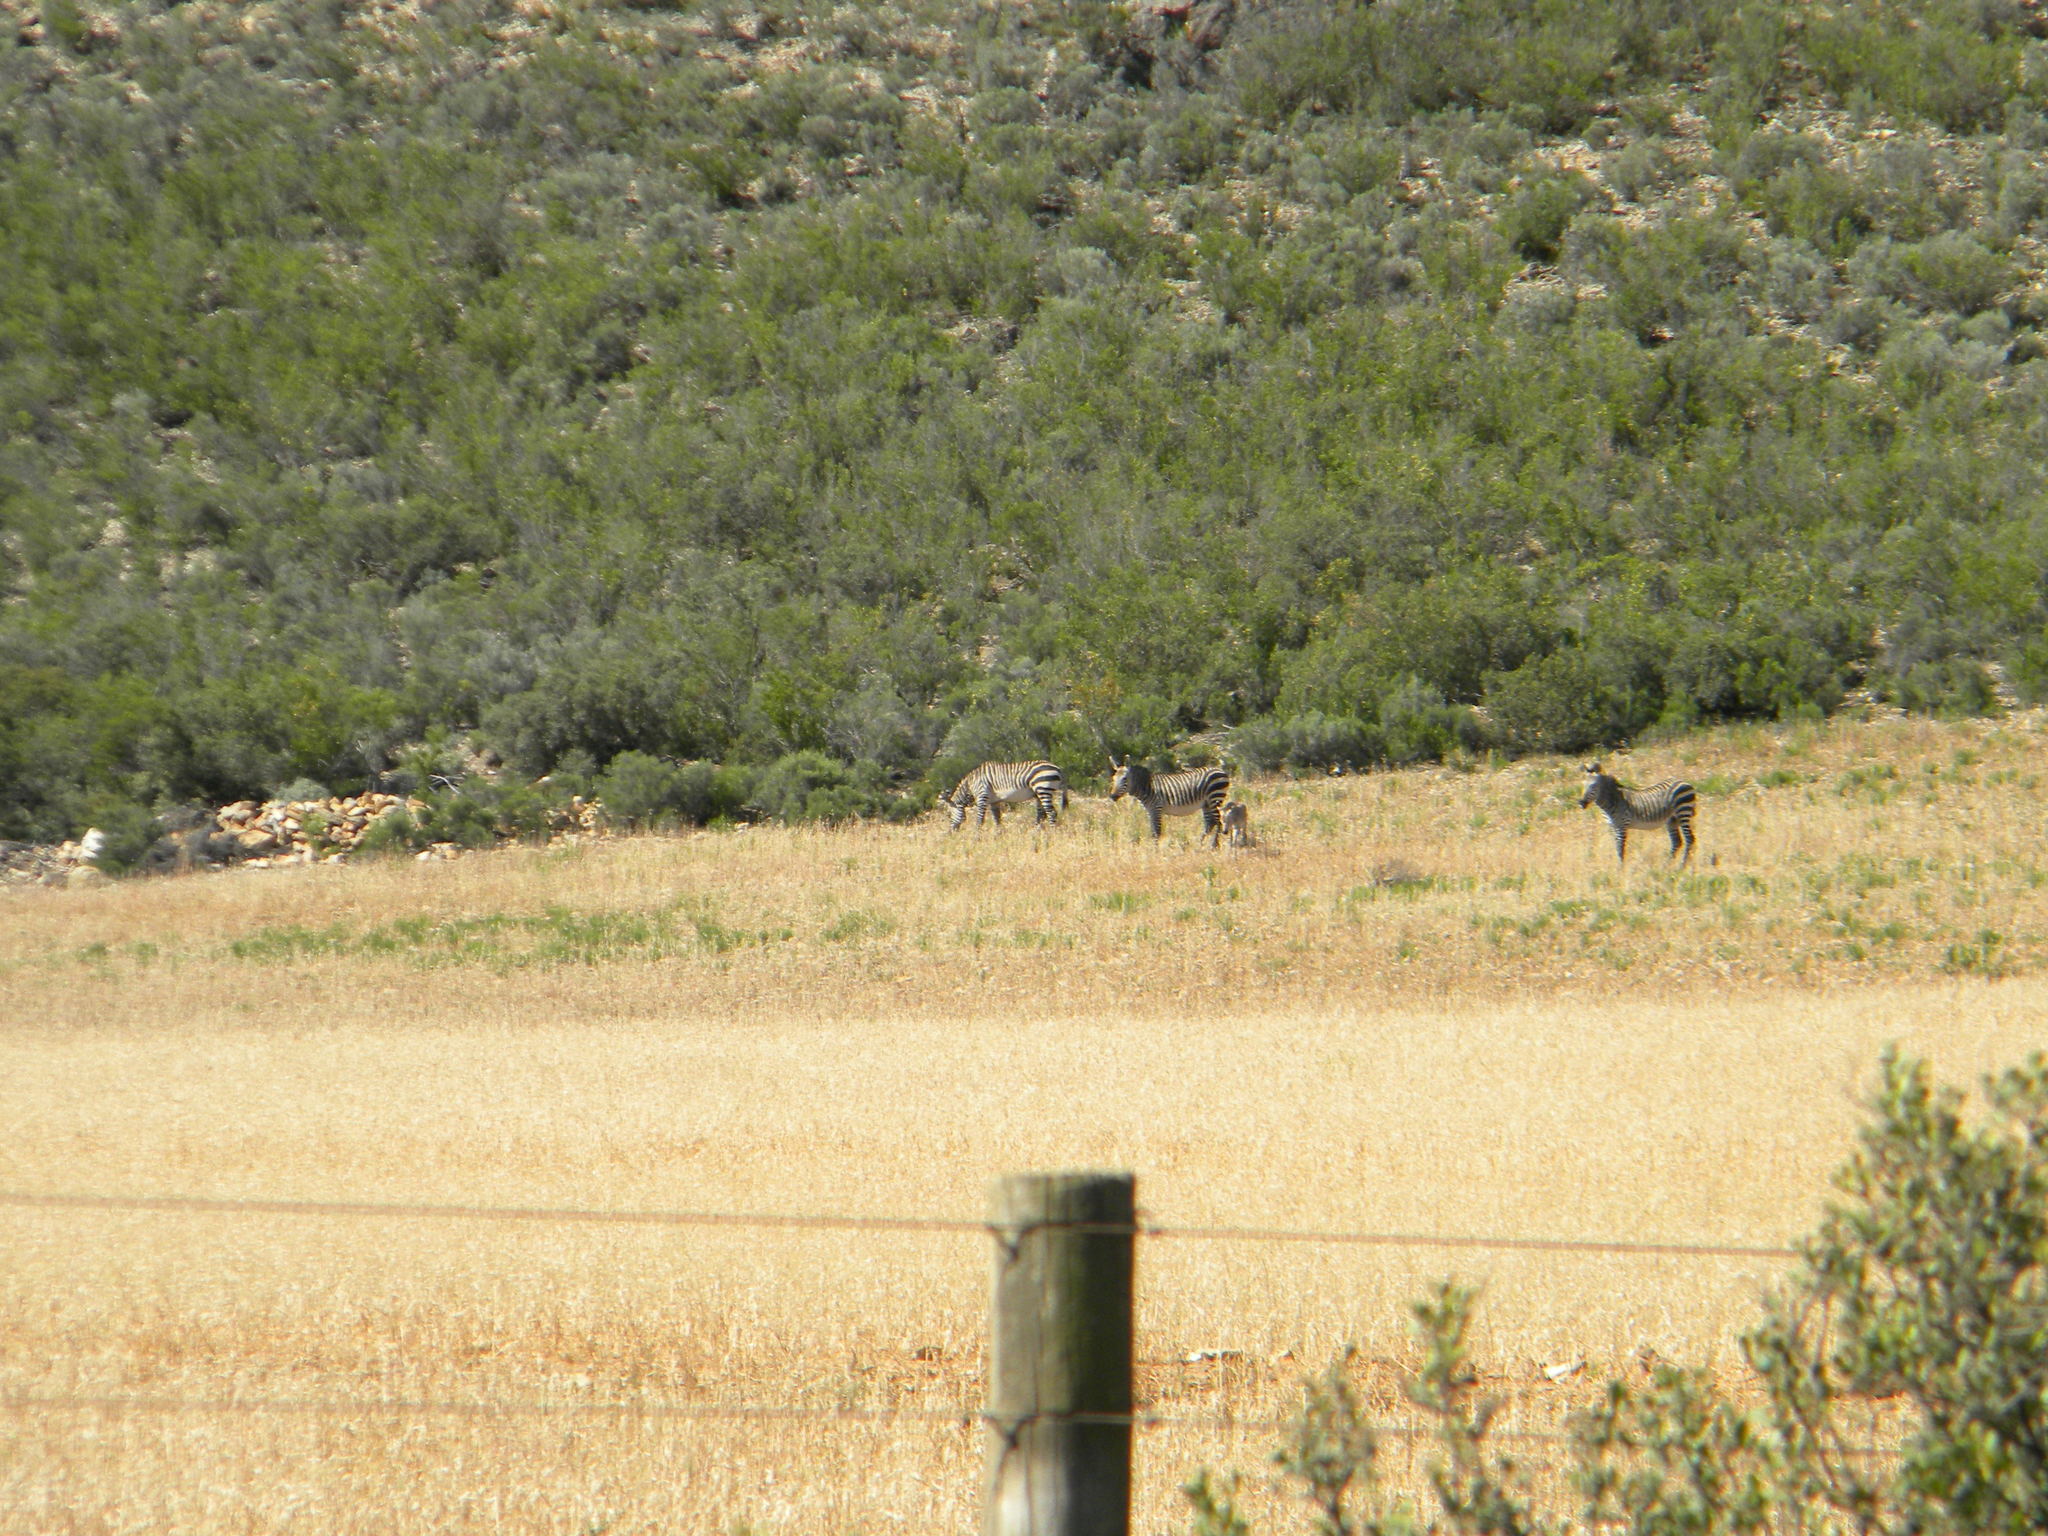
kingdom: Animalia
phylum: Chordata
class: Mammalia
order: Perissodactyla
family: Equidae
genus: Equus
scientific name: Equus zebra
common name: Mountain zebra
